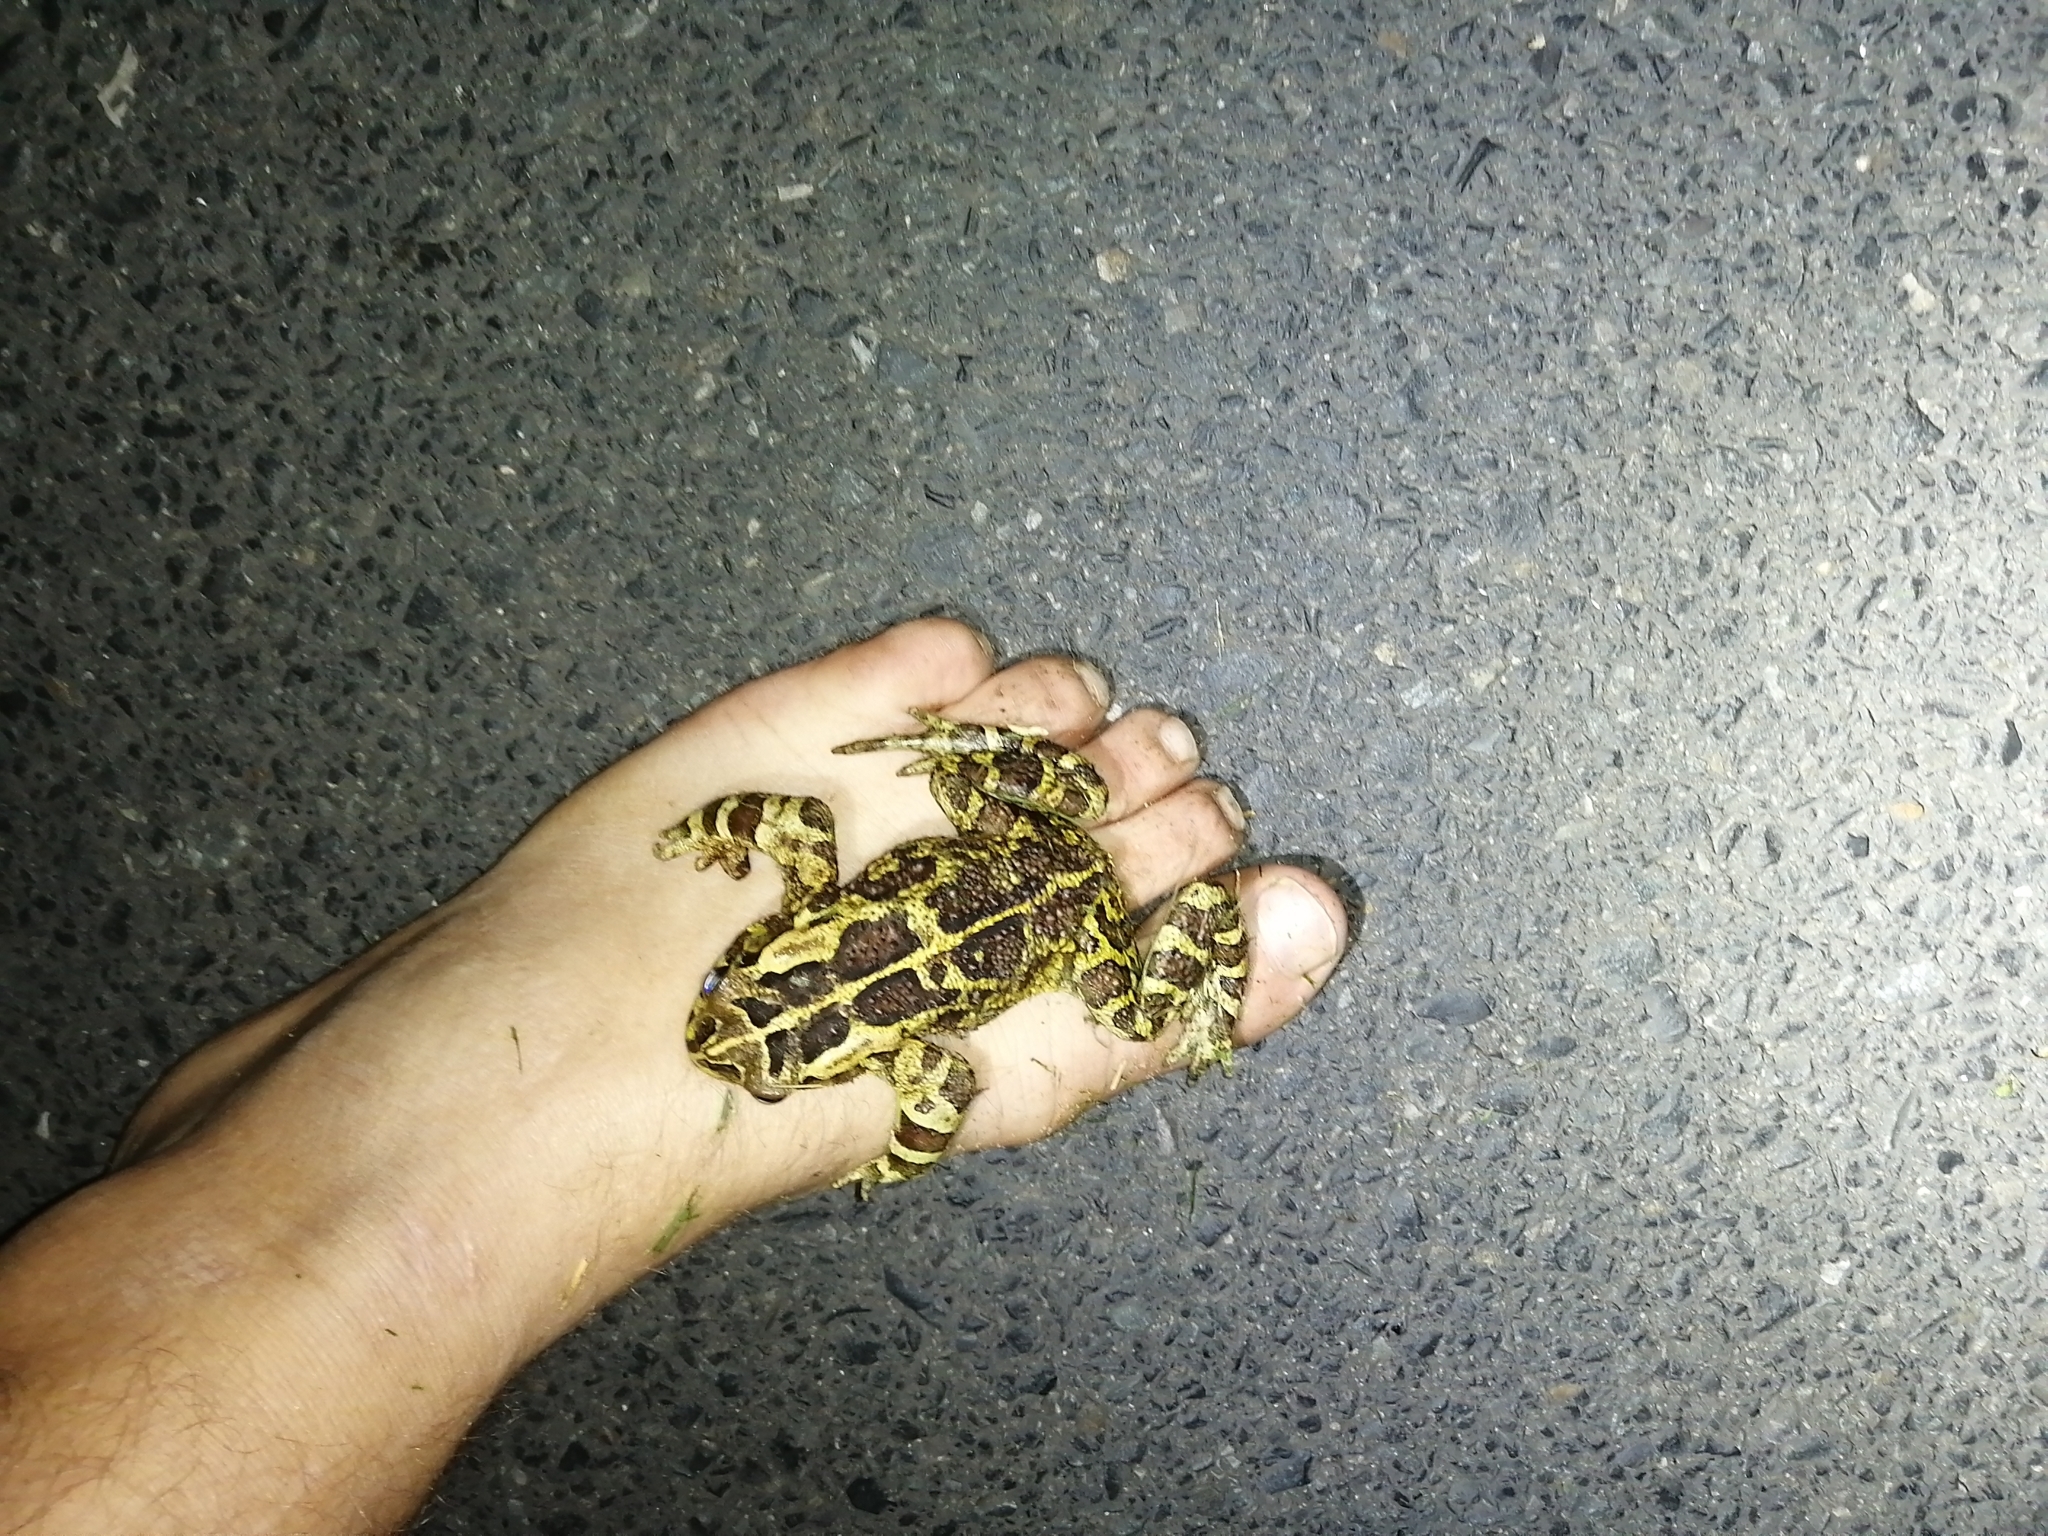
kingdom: Animalia
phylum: Chordata
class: Amphibia
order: Anura
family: Bufonidae
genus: Sclerophrys
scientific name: Sclerophrys pantherina
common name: Panther toad
